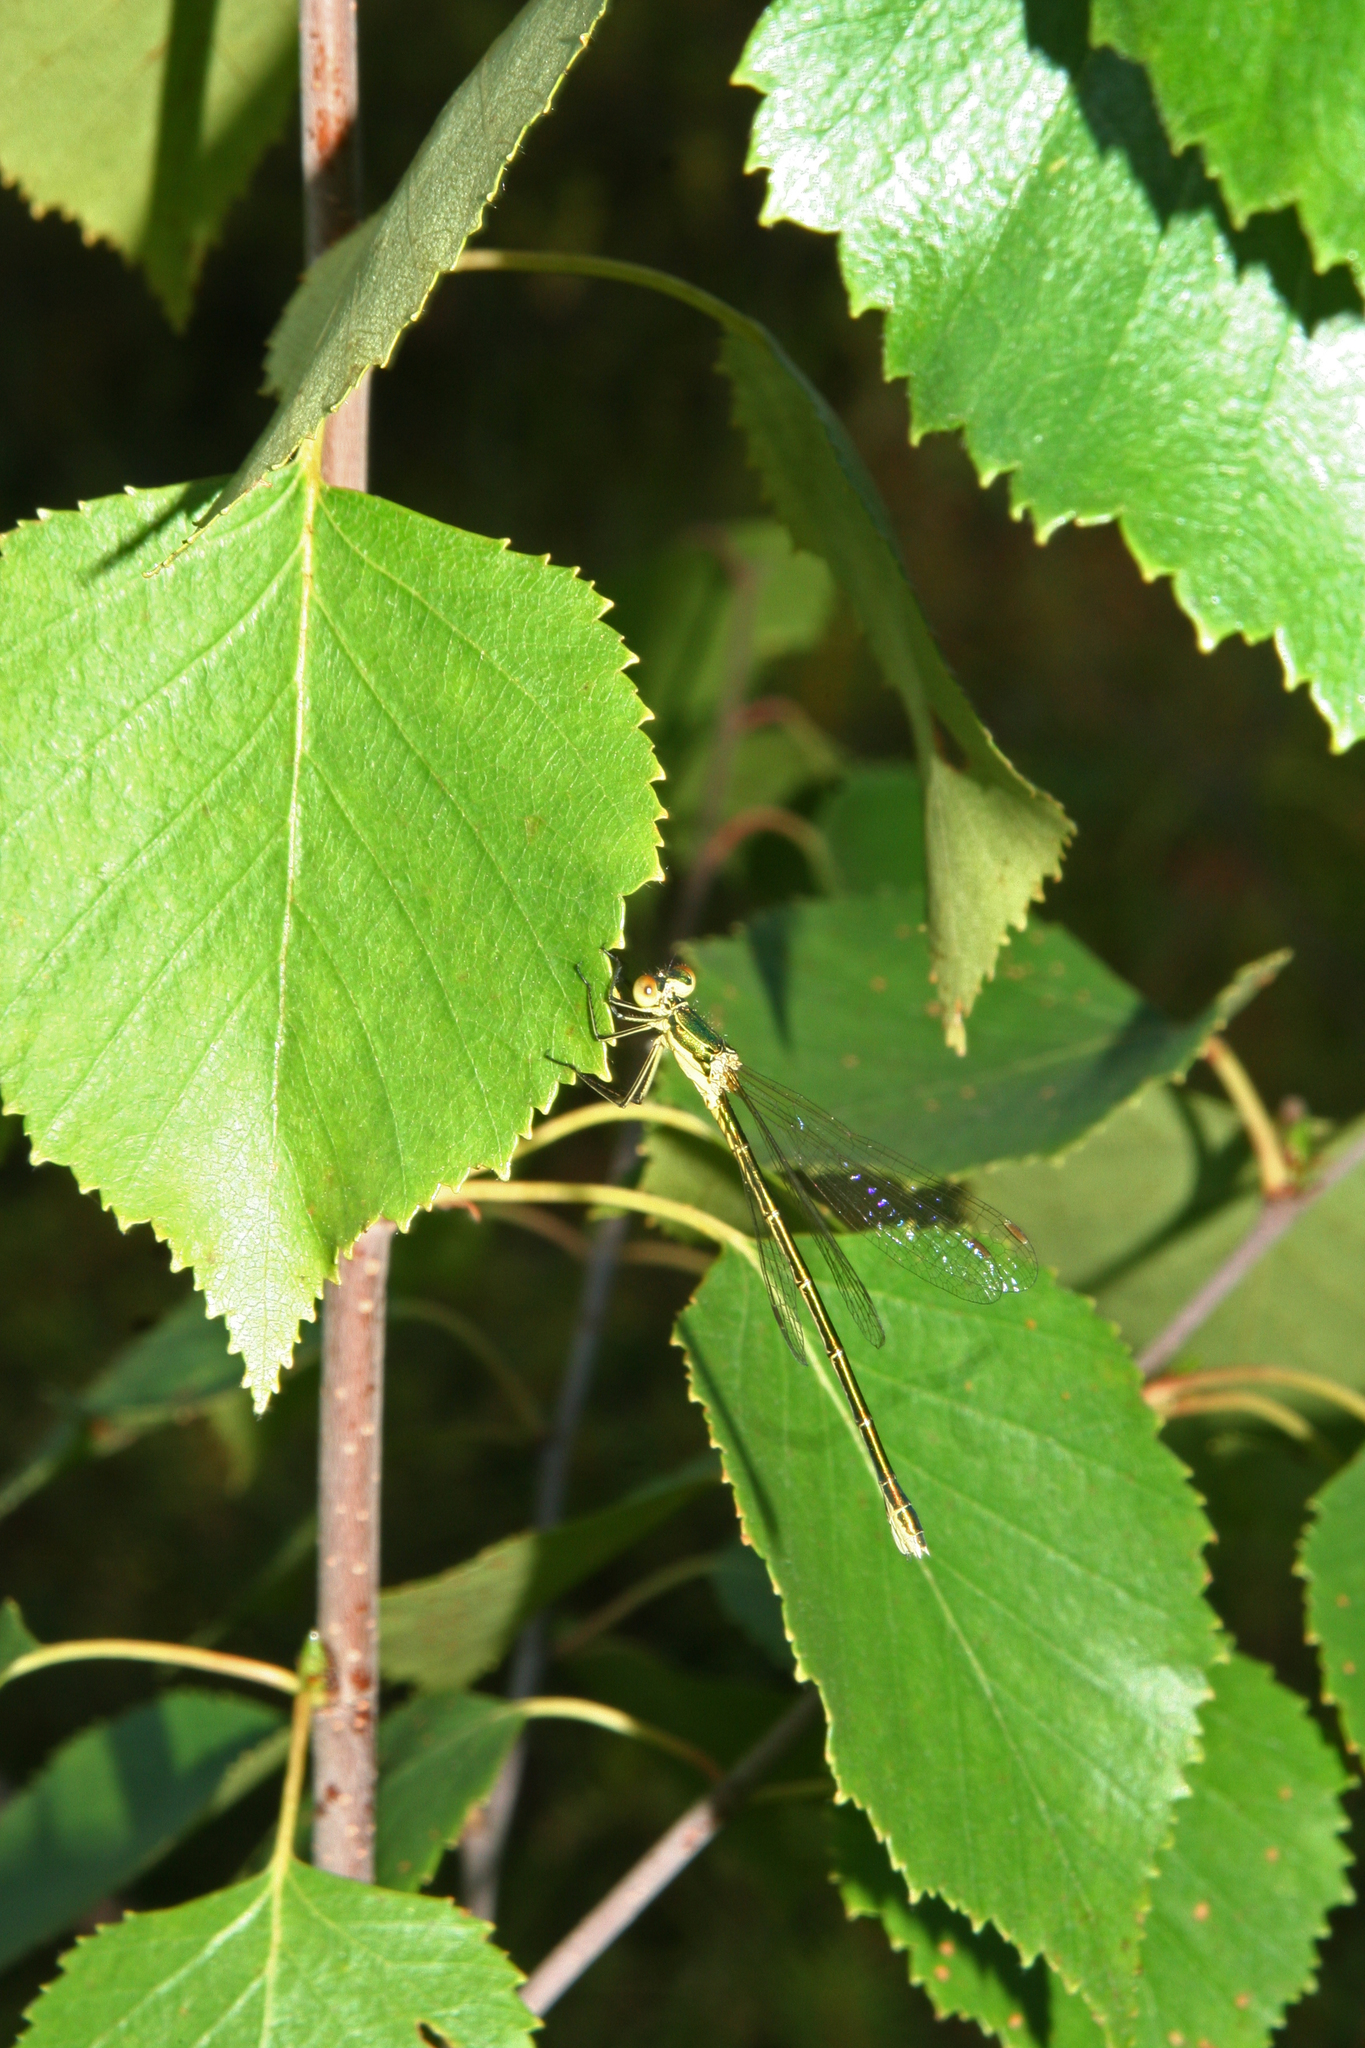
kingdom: Animalia
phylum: Arthropoda
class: Insecta
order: Odonata
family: Lestidae
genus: Lestes
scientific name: Lestes virens
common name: Small emerald spreadwing
